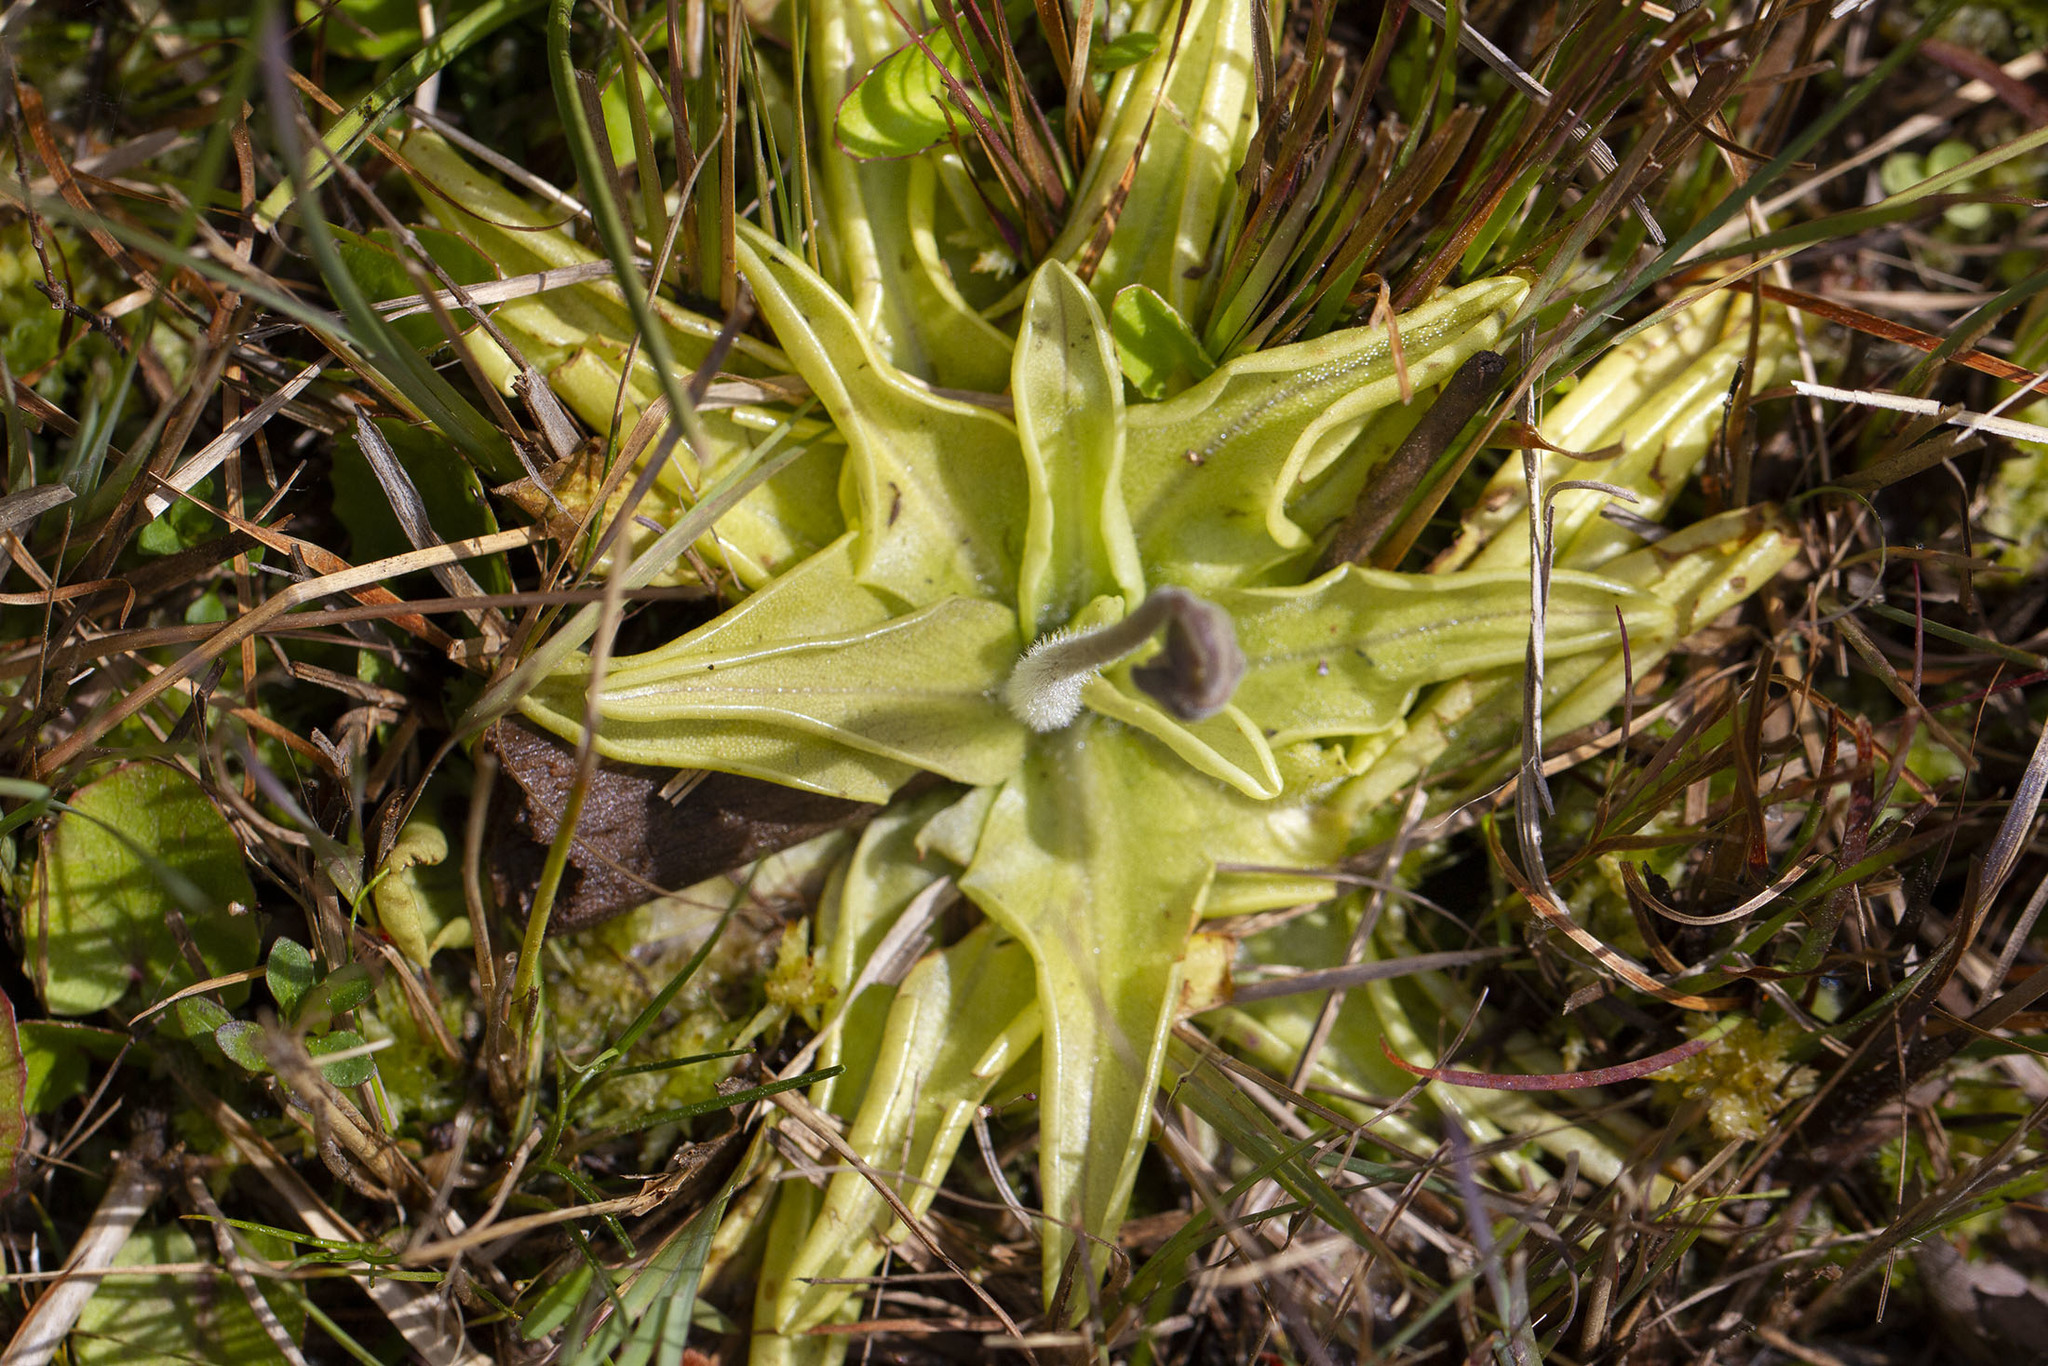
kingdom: Plantae
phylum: Tracheophyta
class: Magnoliopsida
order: Lamiales
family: Lentibulariaceae
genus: Pinguicula
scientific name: Pinguicula caerulea
